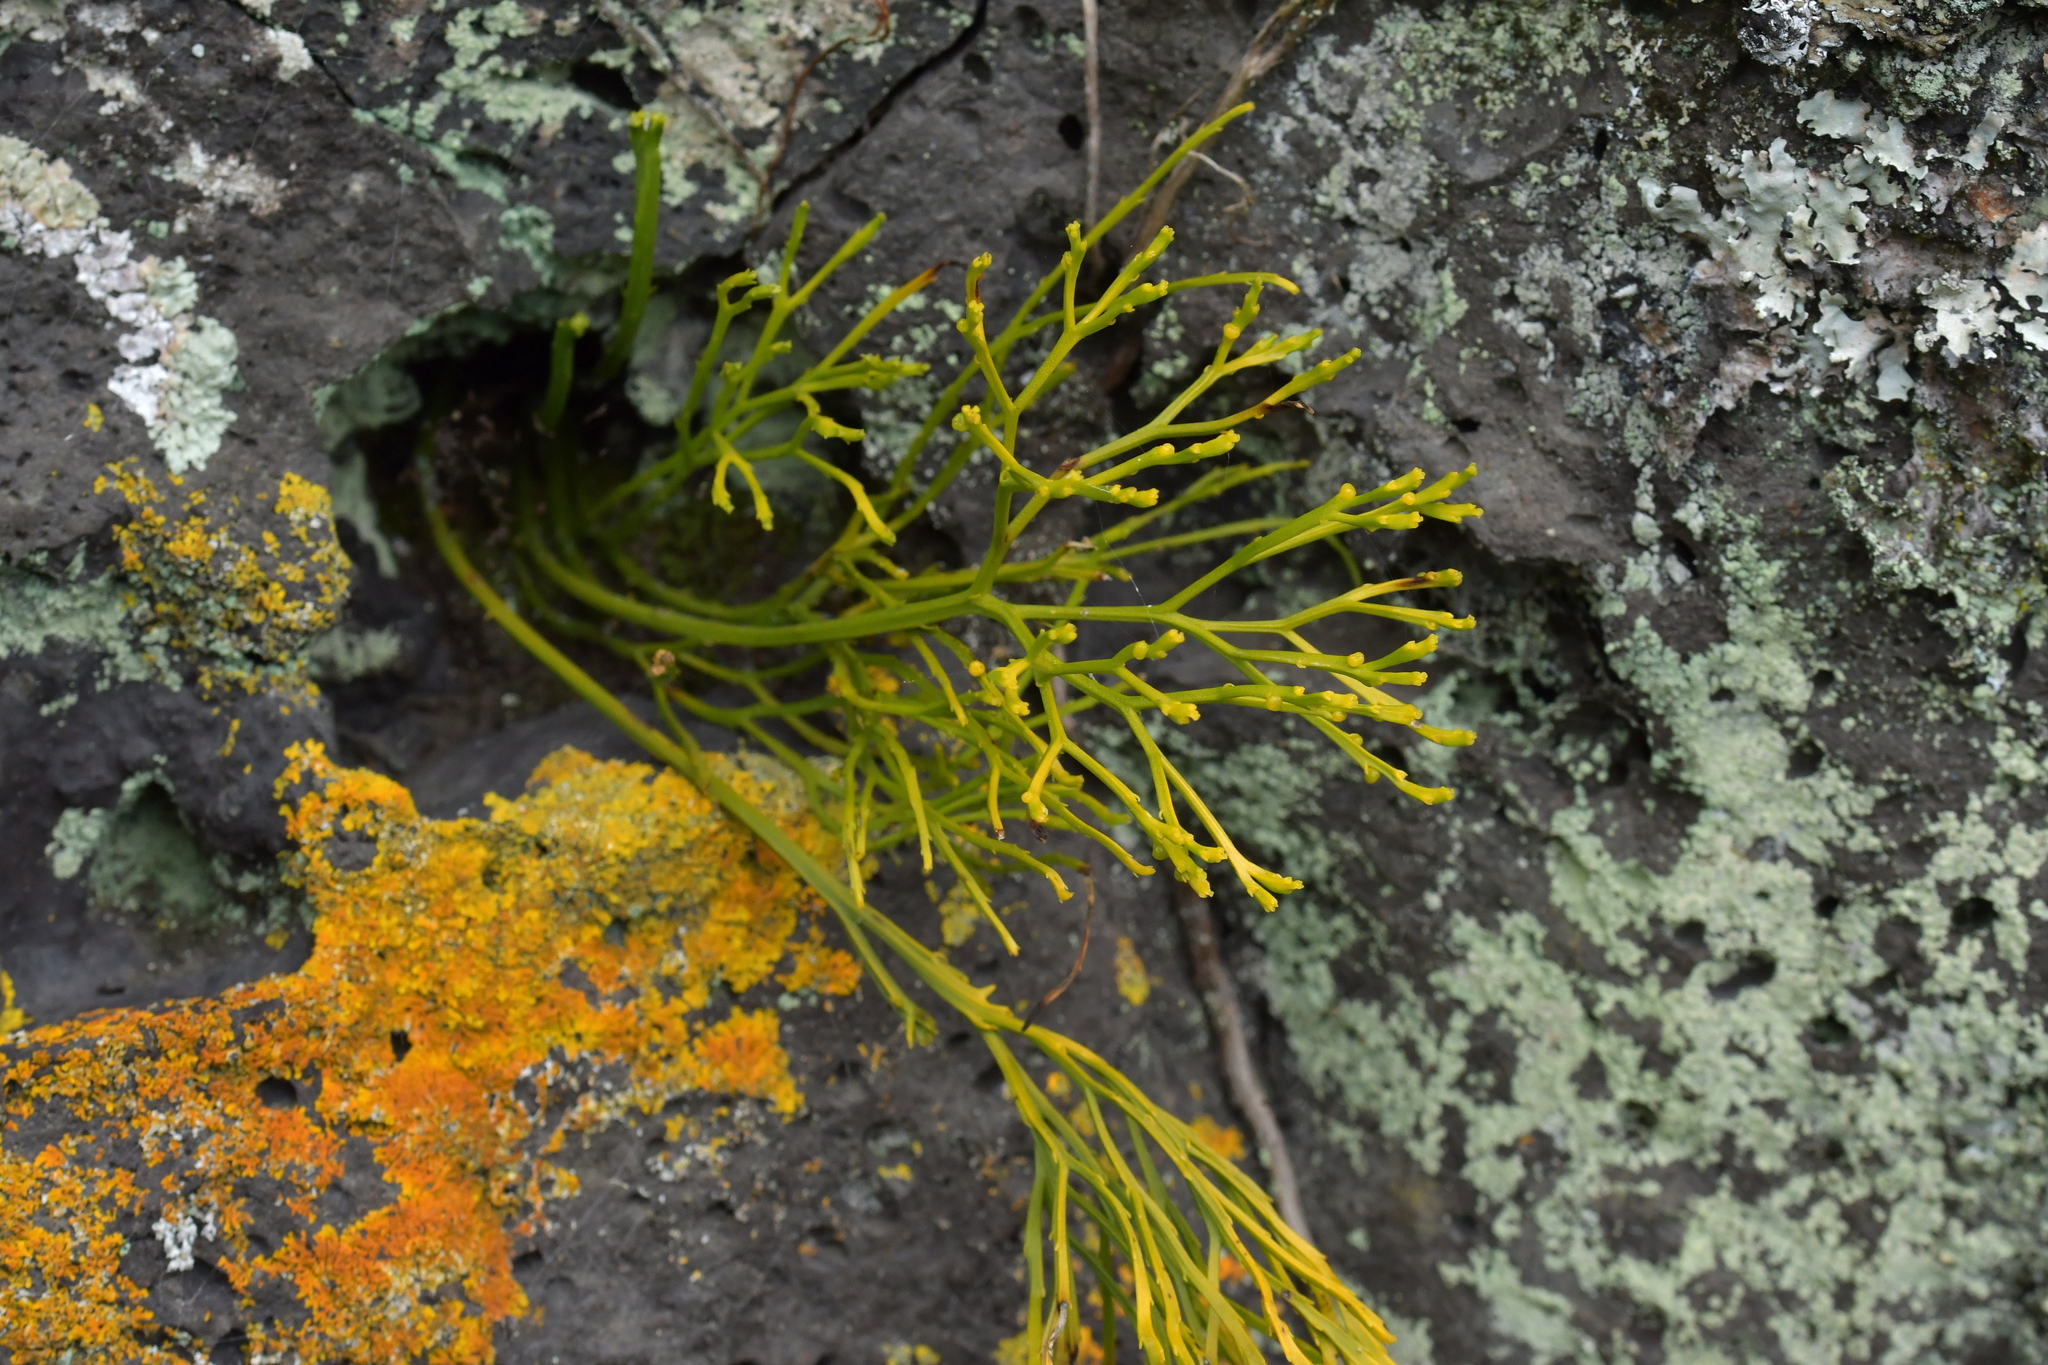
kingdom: Plantae
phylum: Tracheophyta
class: Polypodiopsida
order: Psilotales
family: Psilotaceae
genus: Psilotum
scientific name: Psilotum nudum
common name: Skeleton fork fern
